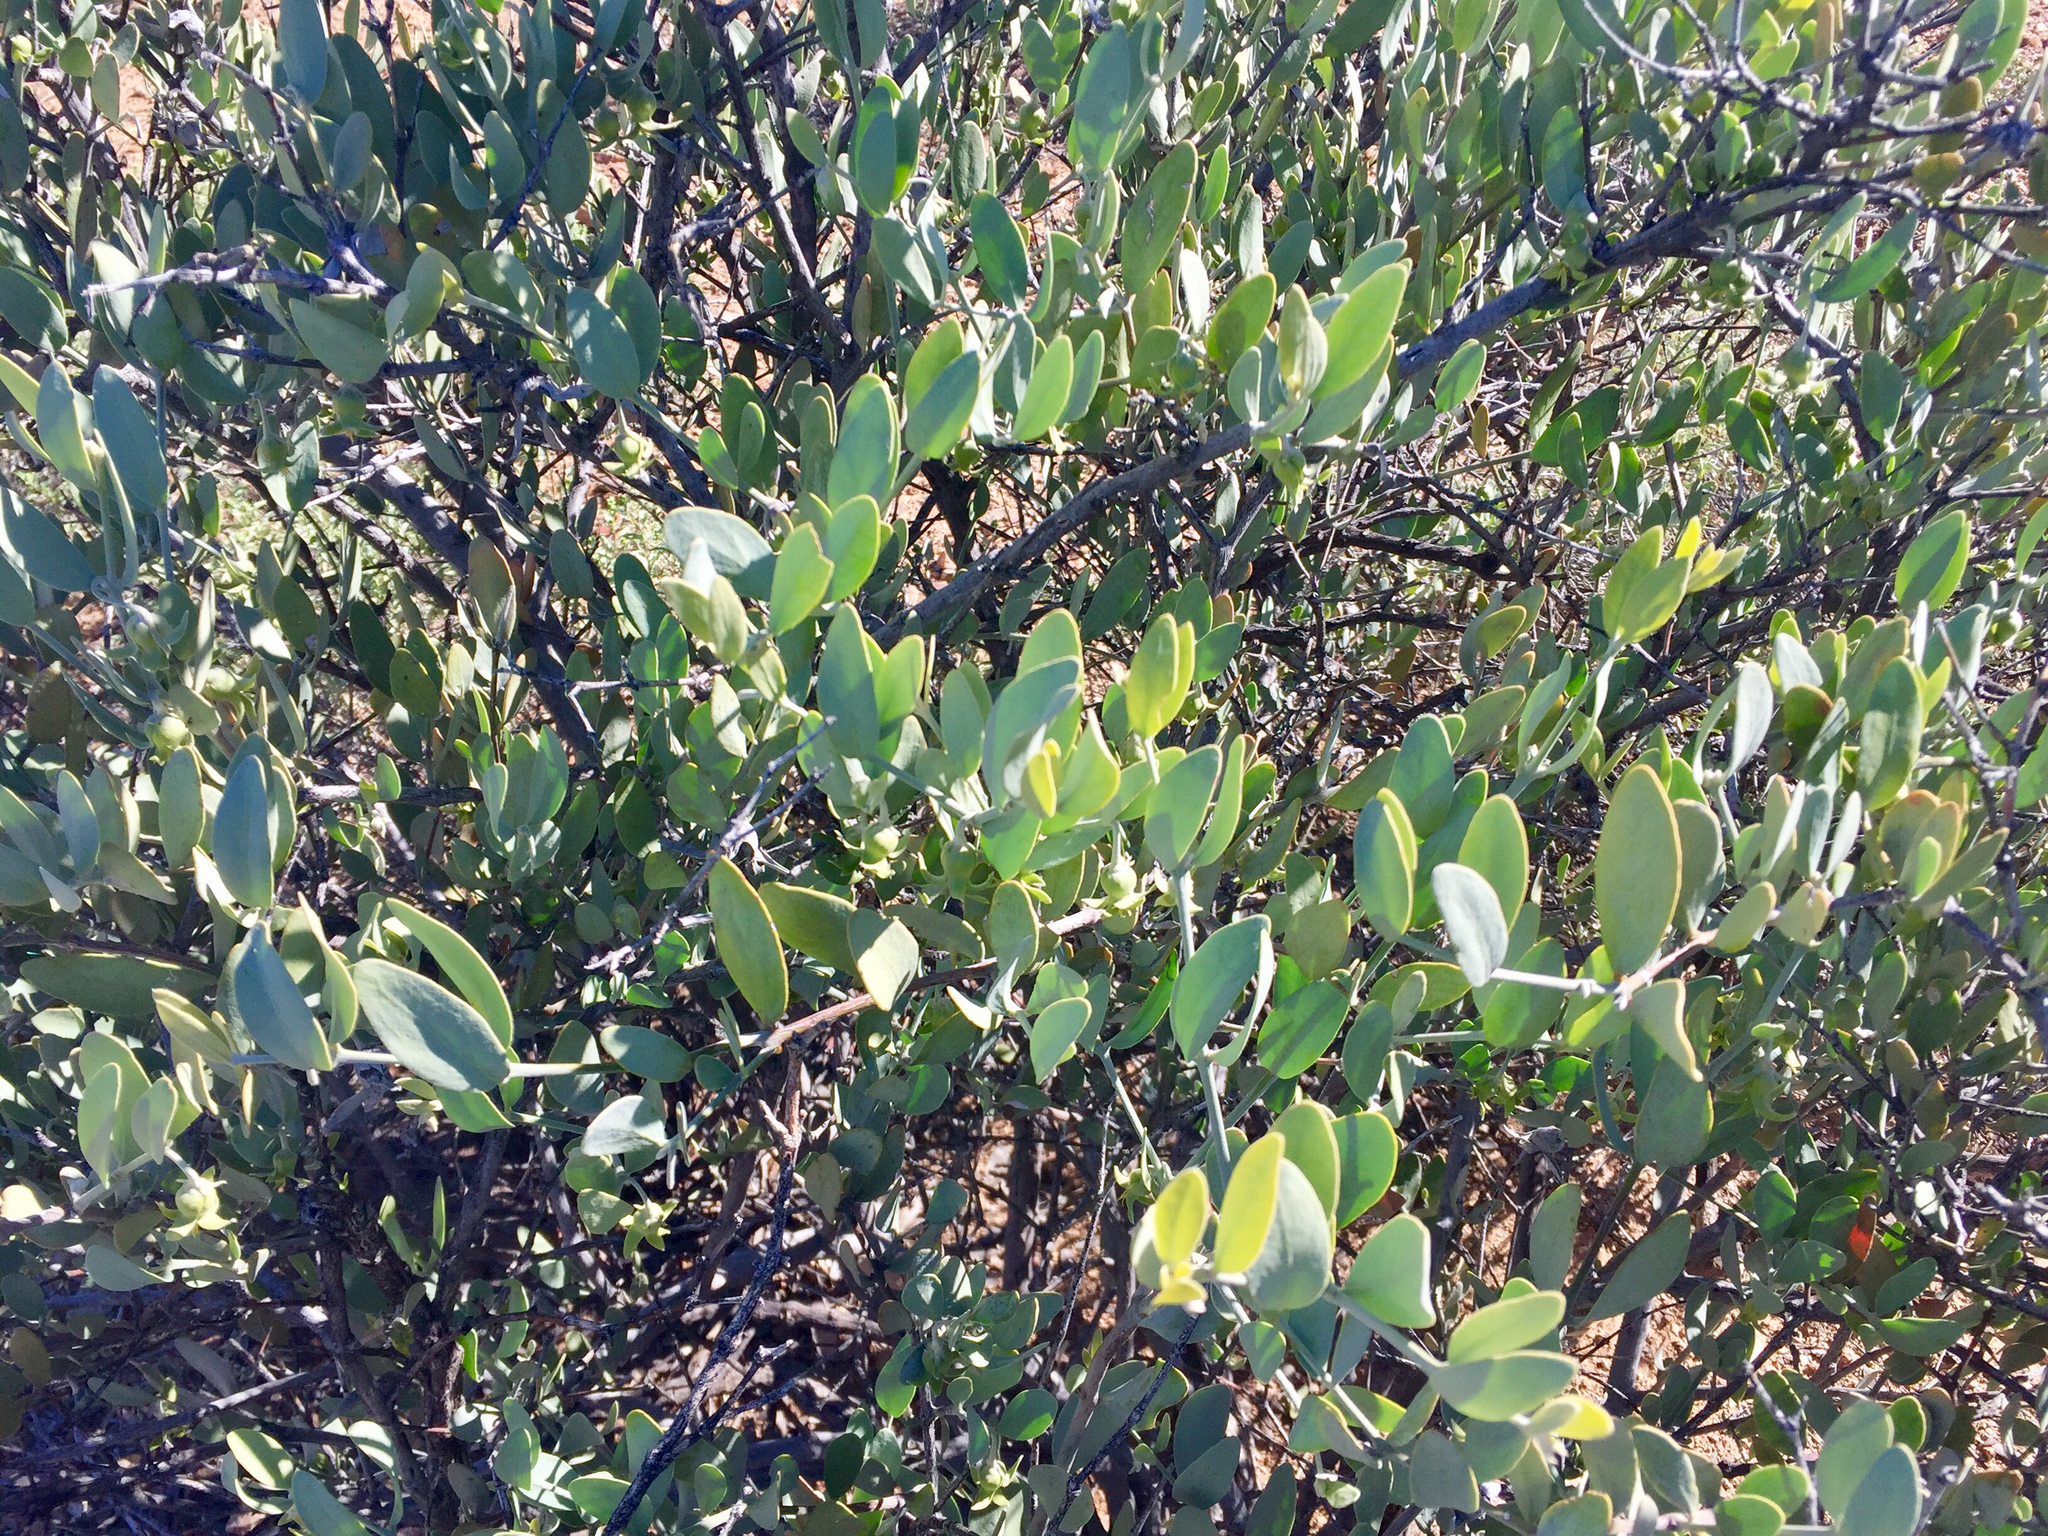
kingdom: Plantae
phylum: Tracheophyta
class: Magnoliopsida
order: Caryophyllales
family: Simmondsiaceae
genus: Simmondsia
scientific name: Simmondsia chinensis
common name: Jojoba
